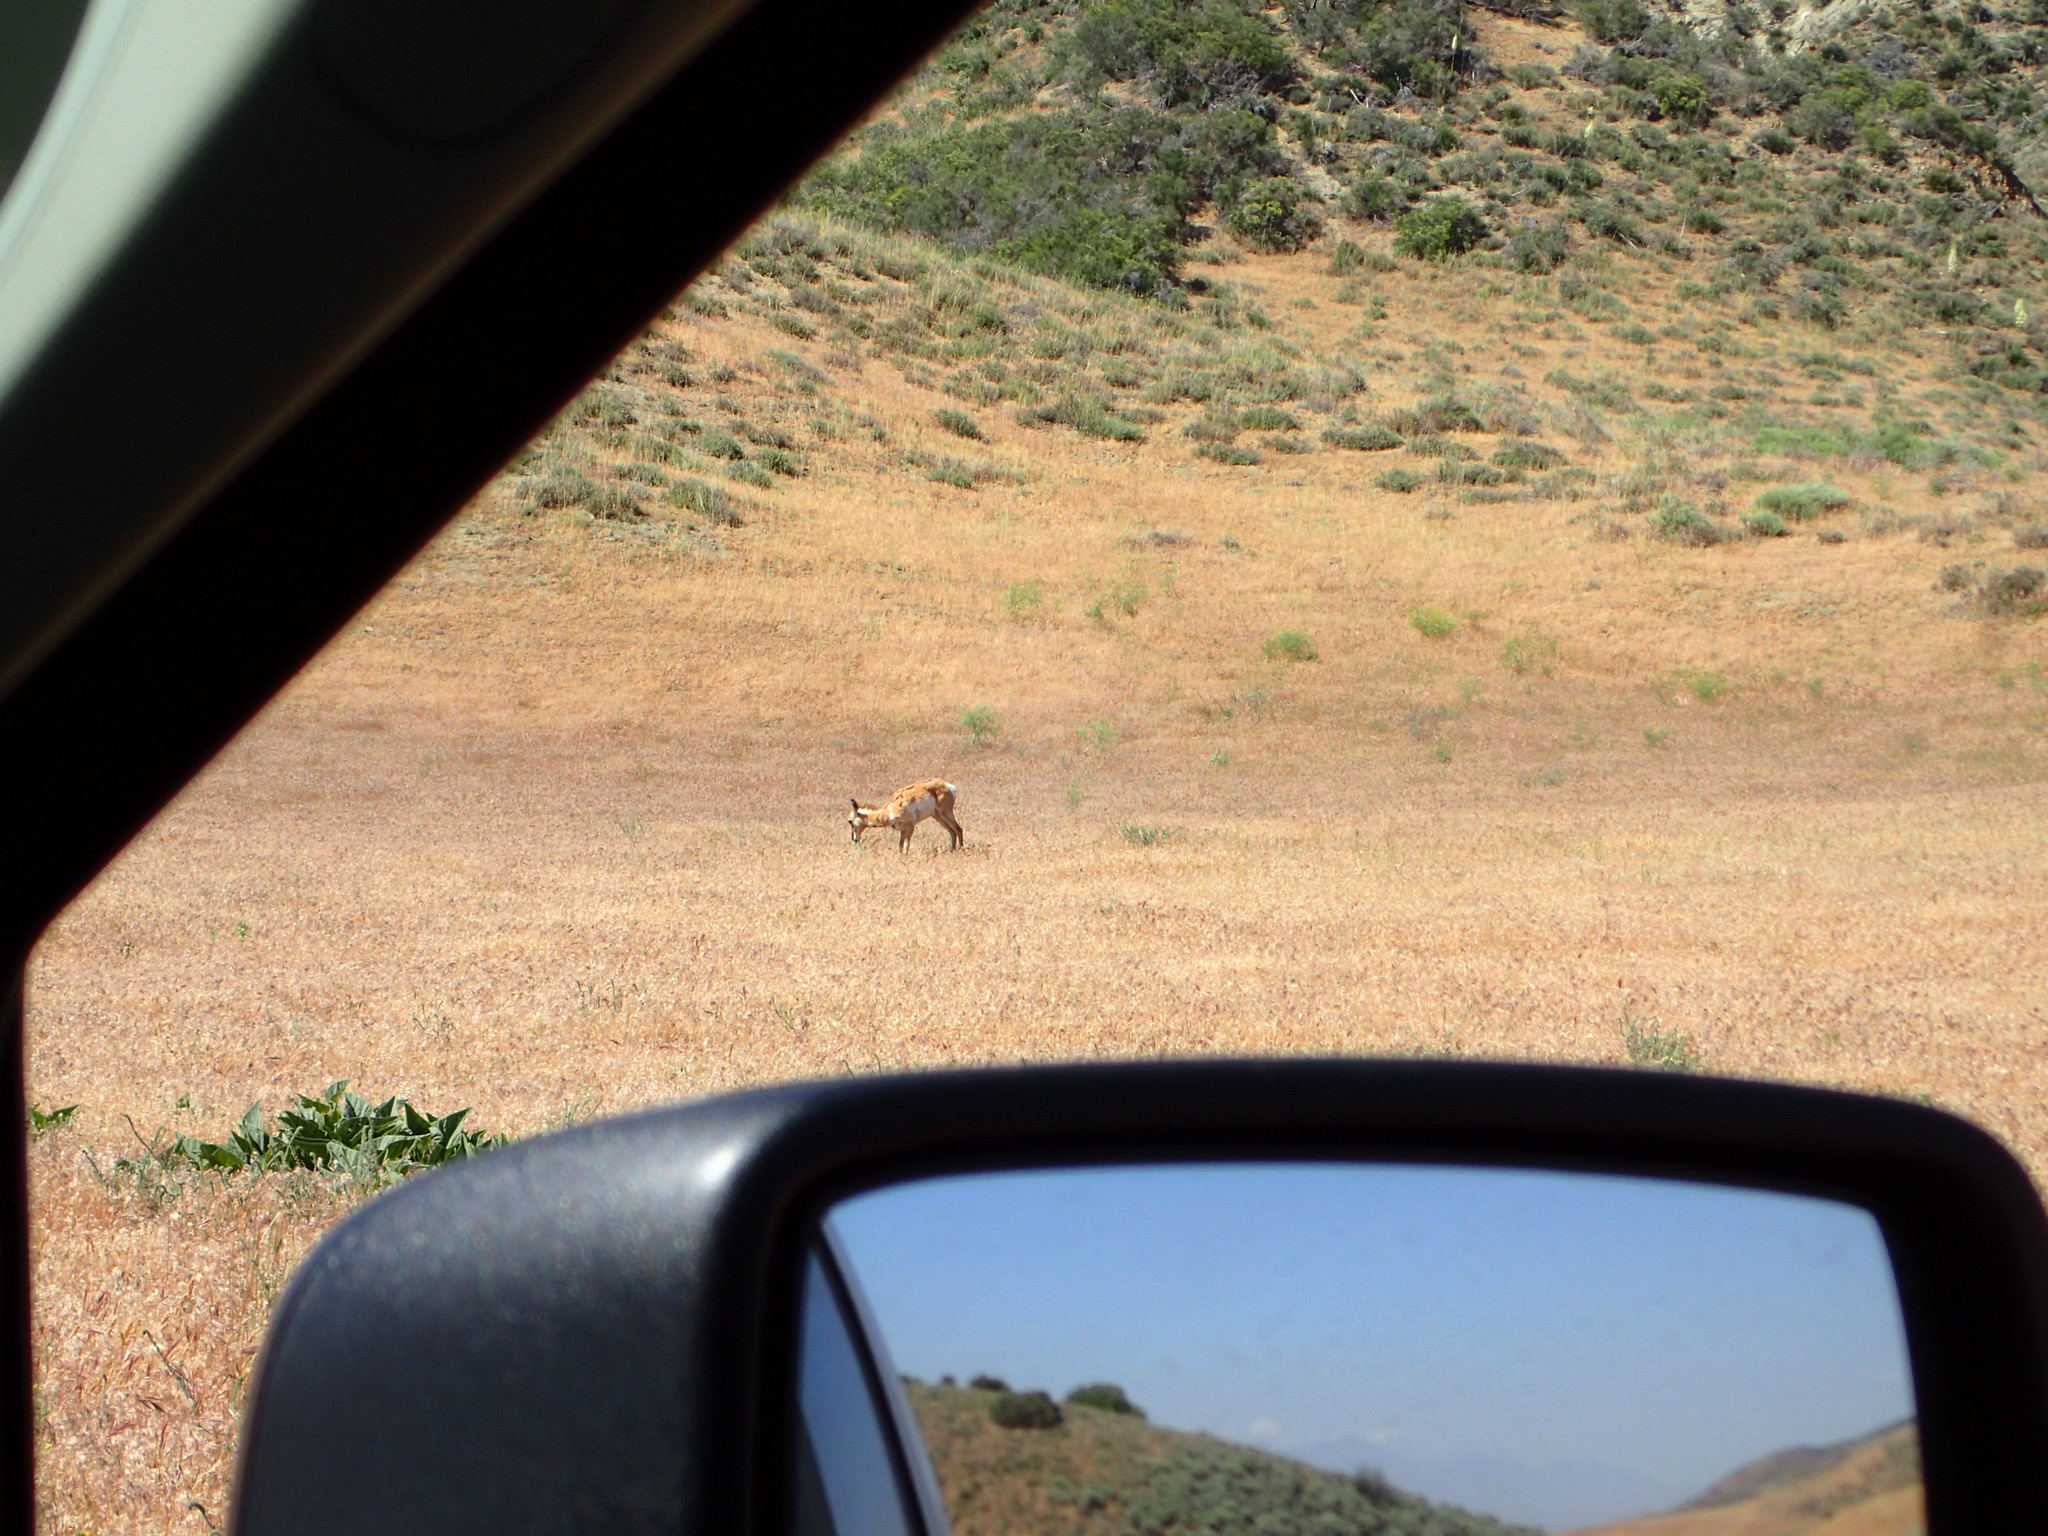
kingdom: Animalia
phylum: Chordata
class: Mammalia
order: Artiodactyla
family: Antilocapridae
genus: Antilocapra
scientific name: Antilocapra americana
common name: Pronghorn
